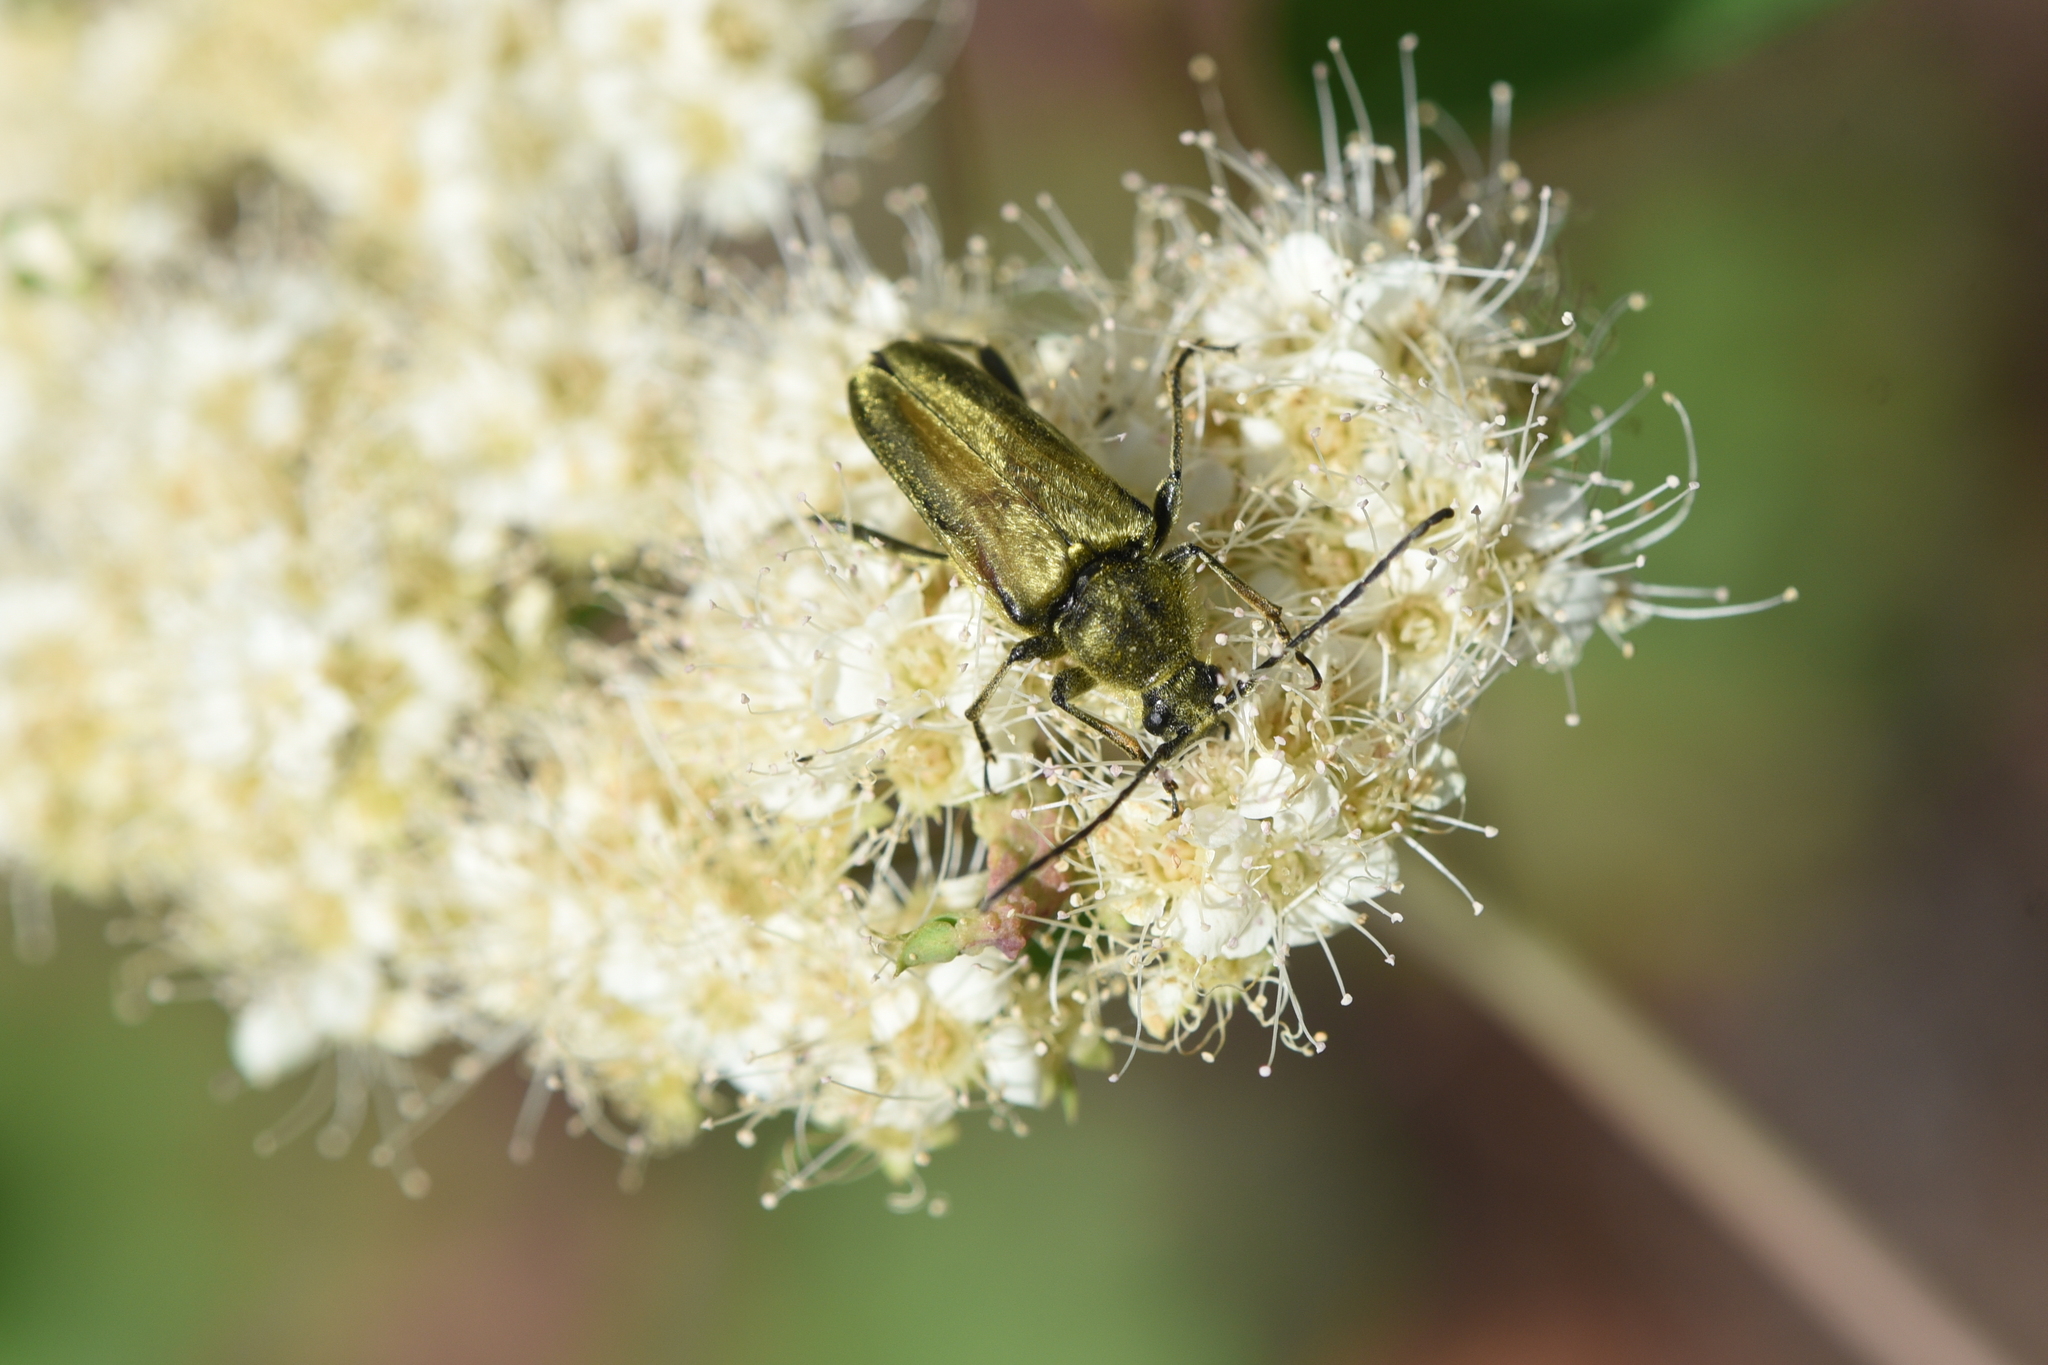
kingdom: Animalia
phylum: Arthropoda
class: Insecta
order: Coleoptera
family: Cerambycidae
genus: Cosmosalia
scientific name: Cosmosalia chrysocoma
